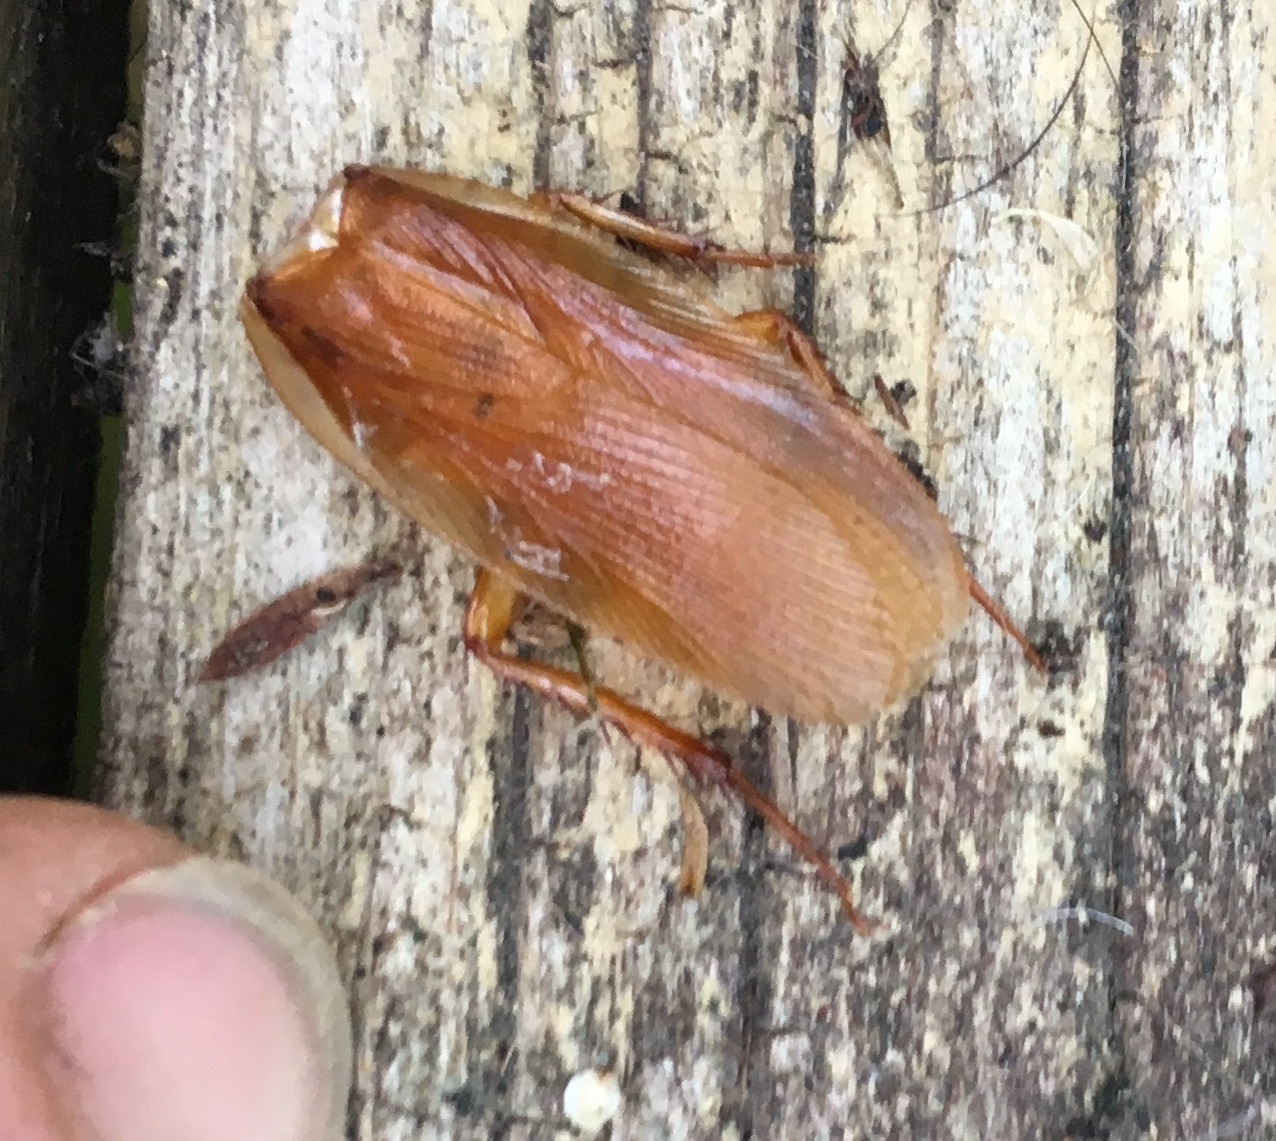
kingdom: Animalia
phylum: Arthropoda
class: Insecta
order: Blattodea
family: Ectobiidae
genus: Neotemnopteryx
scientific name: Neotemnopteryx fulva
